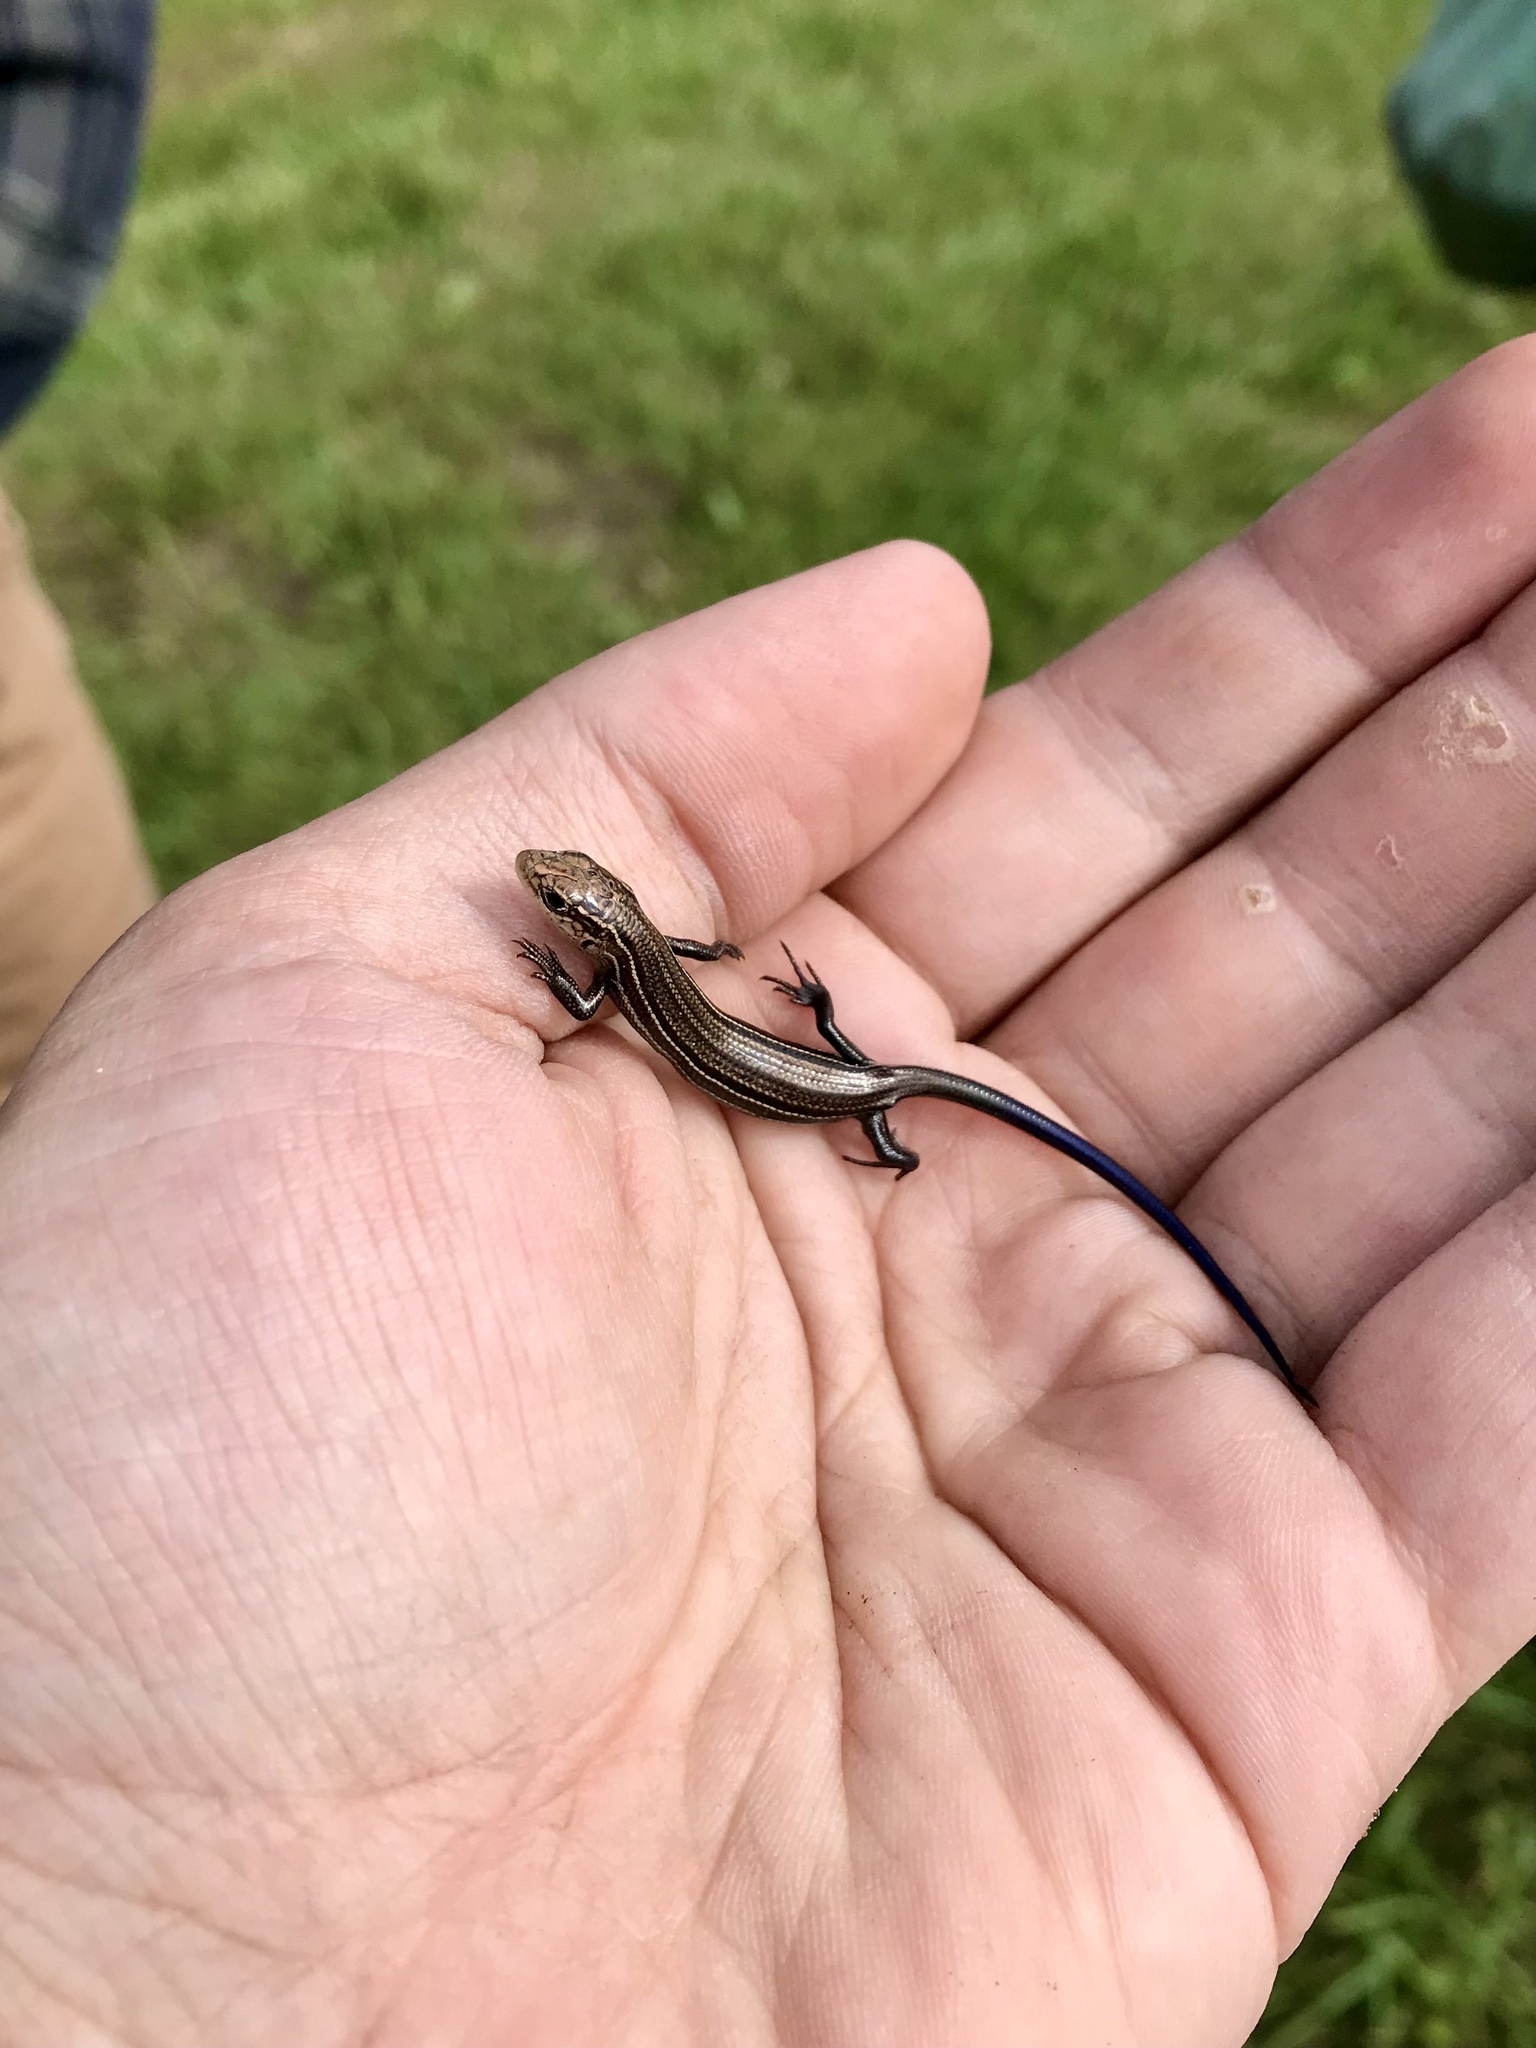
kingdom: Animalia
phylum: Chordata
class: Squamata
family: Scincidae
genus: Plestiodon
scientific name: Plestiodon septentrionalis
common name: Northern prairie skink
